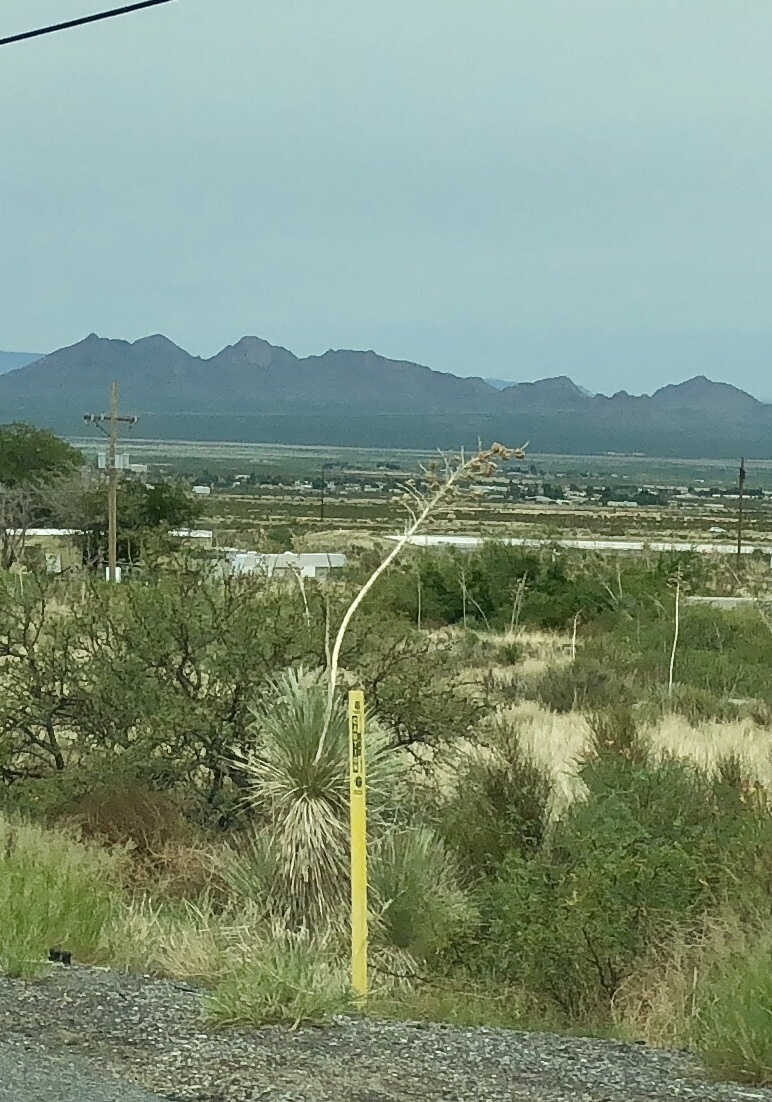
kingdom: Plantae
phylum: Tracheophyta
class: Liliopsida
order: Asparagales
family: Asparagaceae
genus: Yucca
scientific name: Yucca elata
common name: Palmella
